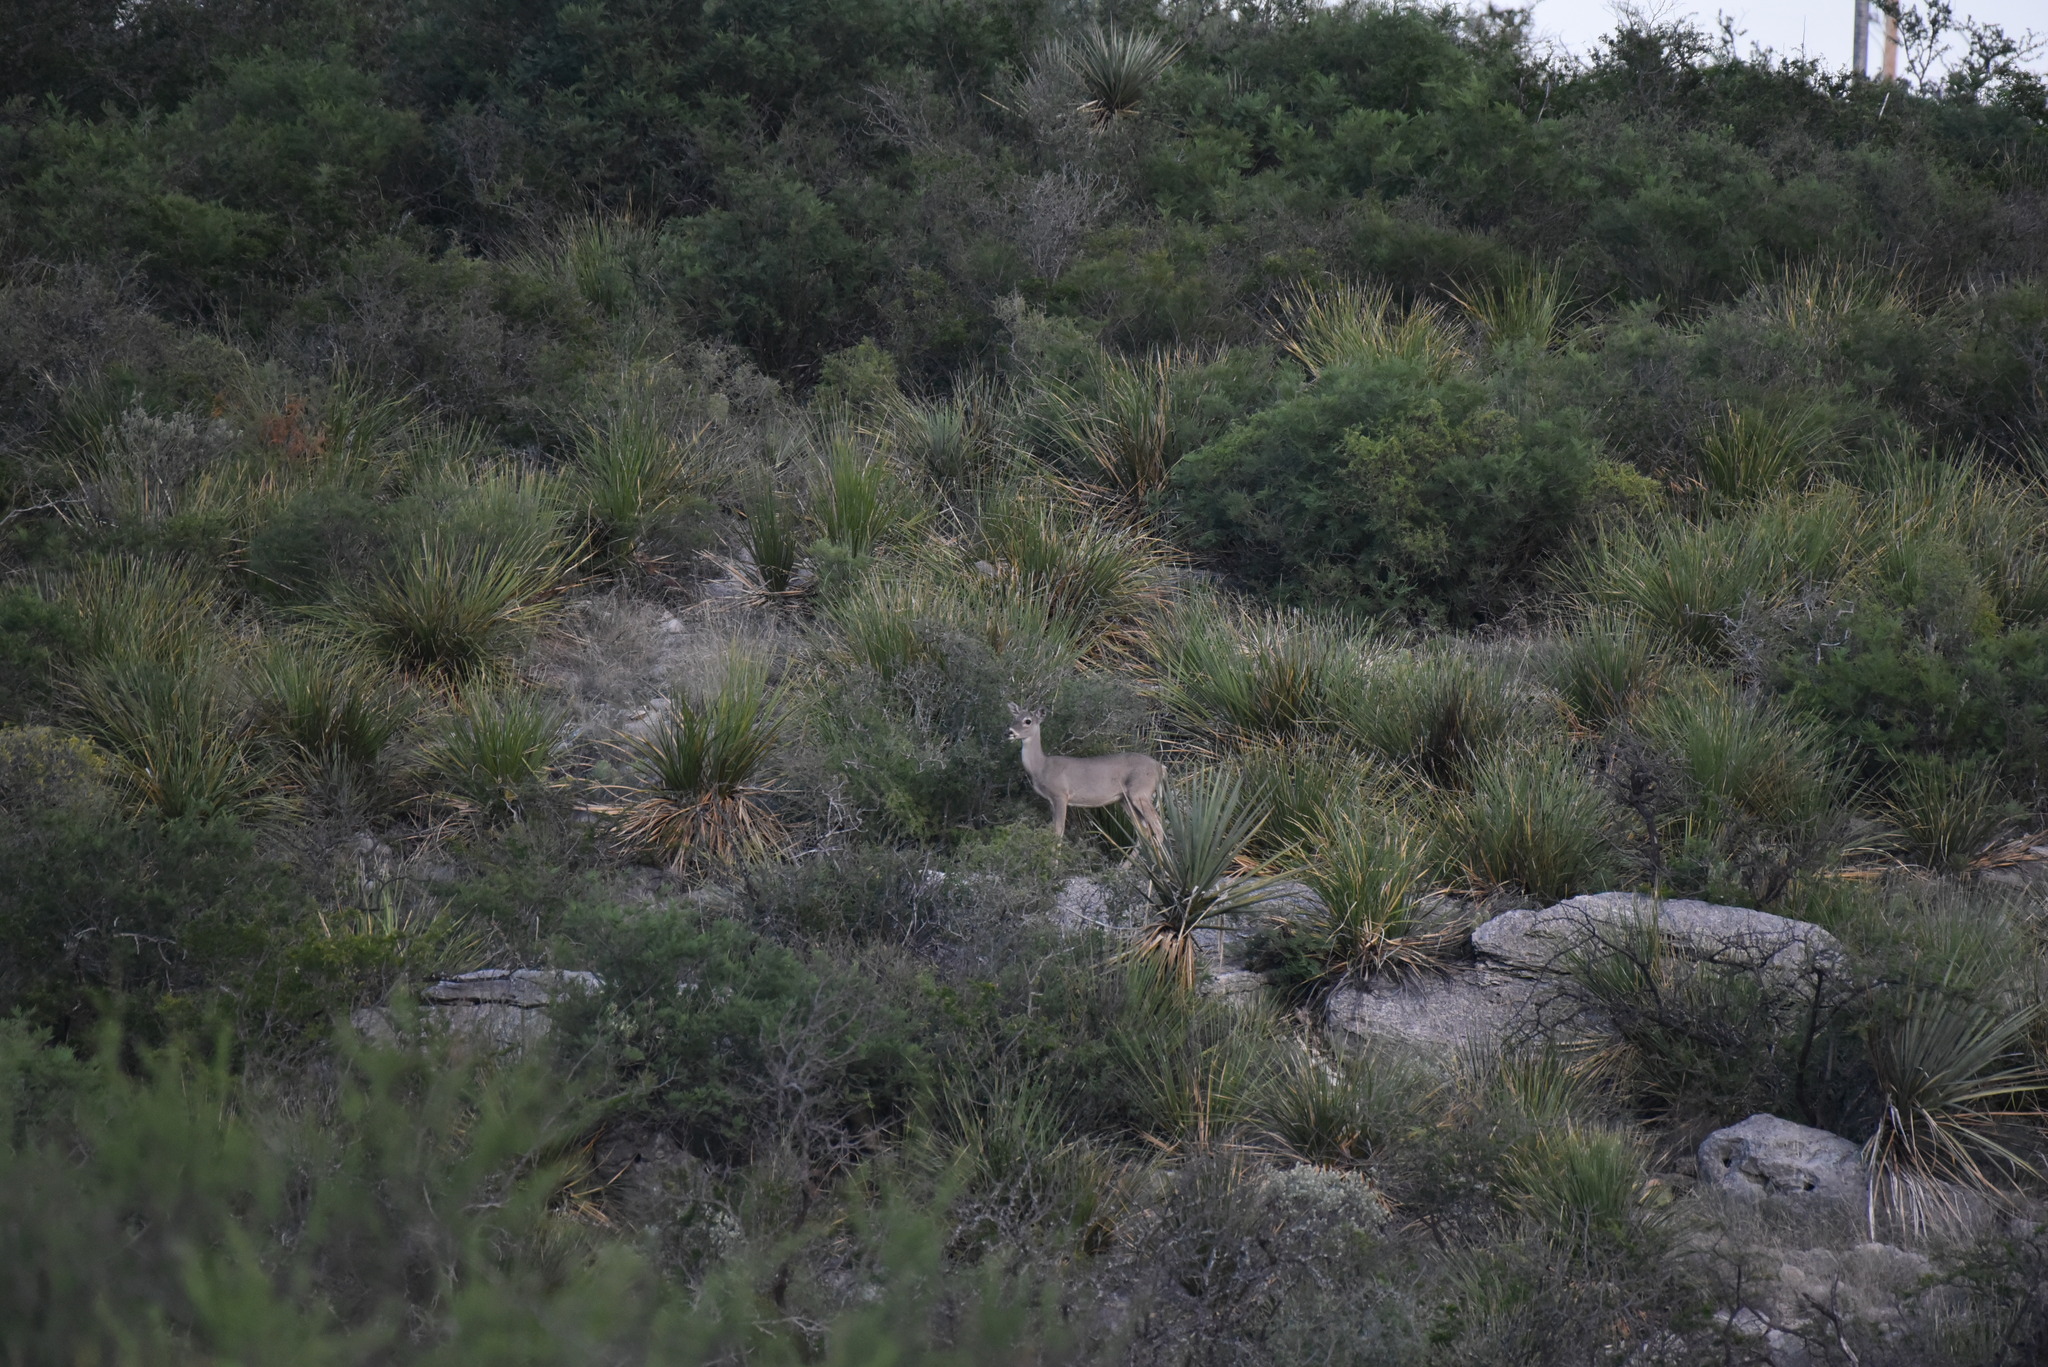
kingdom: Animalia
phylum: Chordata
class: Mammalia
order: Artiodactyla
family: Cervidae
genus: Odocoileus
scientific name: Odocoileus virginianus
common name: White-tailed deer
